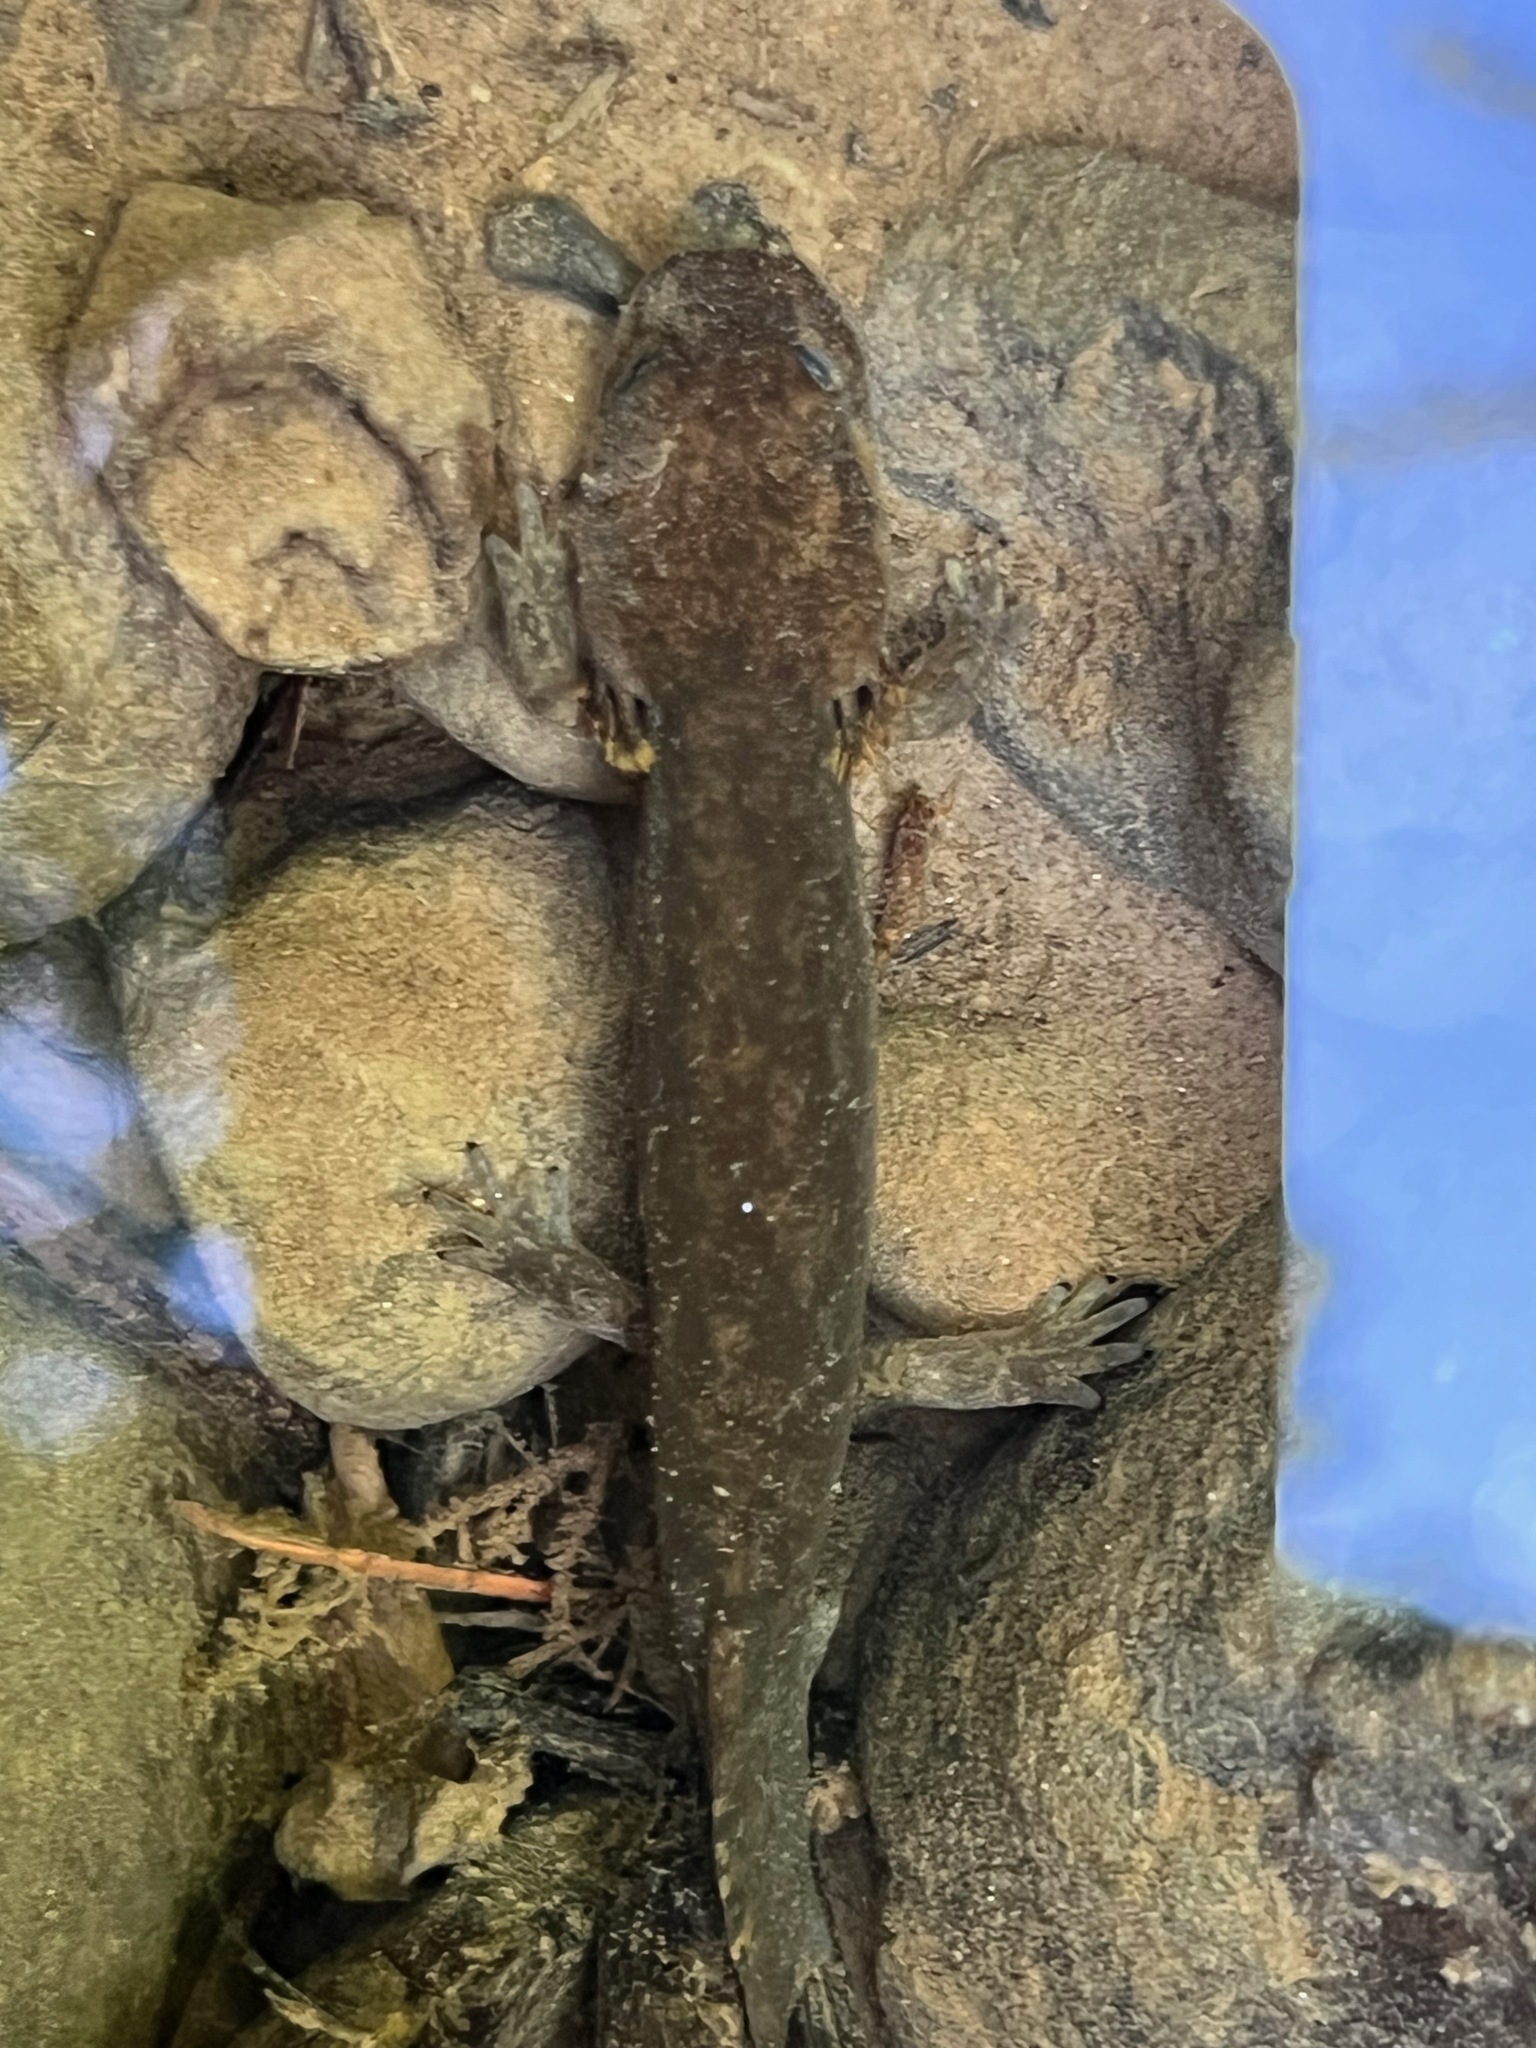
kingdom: Animalia
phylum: Chordata
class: Amphibia
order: Caudata
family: Ambystomatidae
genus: Dicamptodon
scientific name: Dicamptodon tenebrosus
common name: Coastal giant salamander
